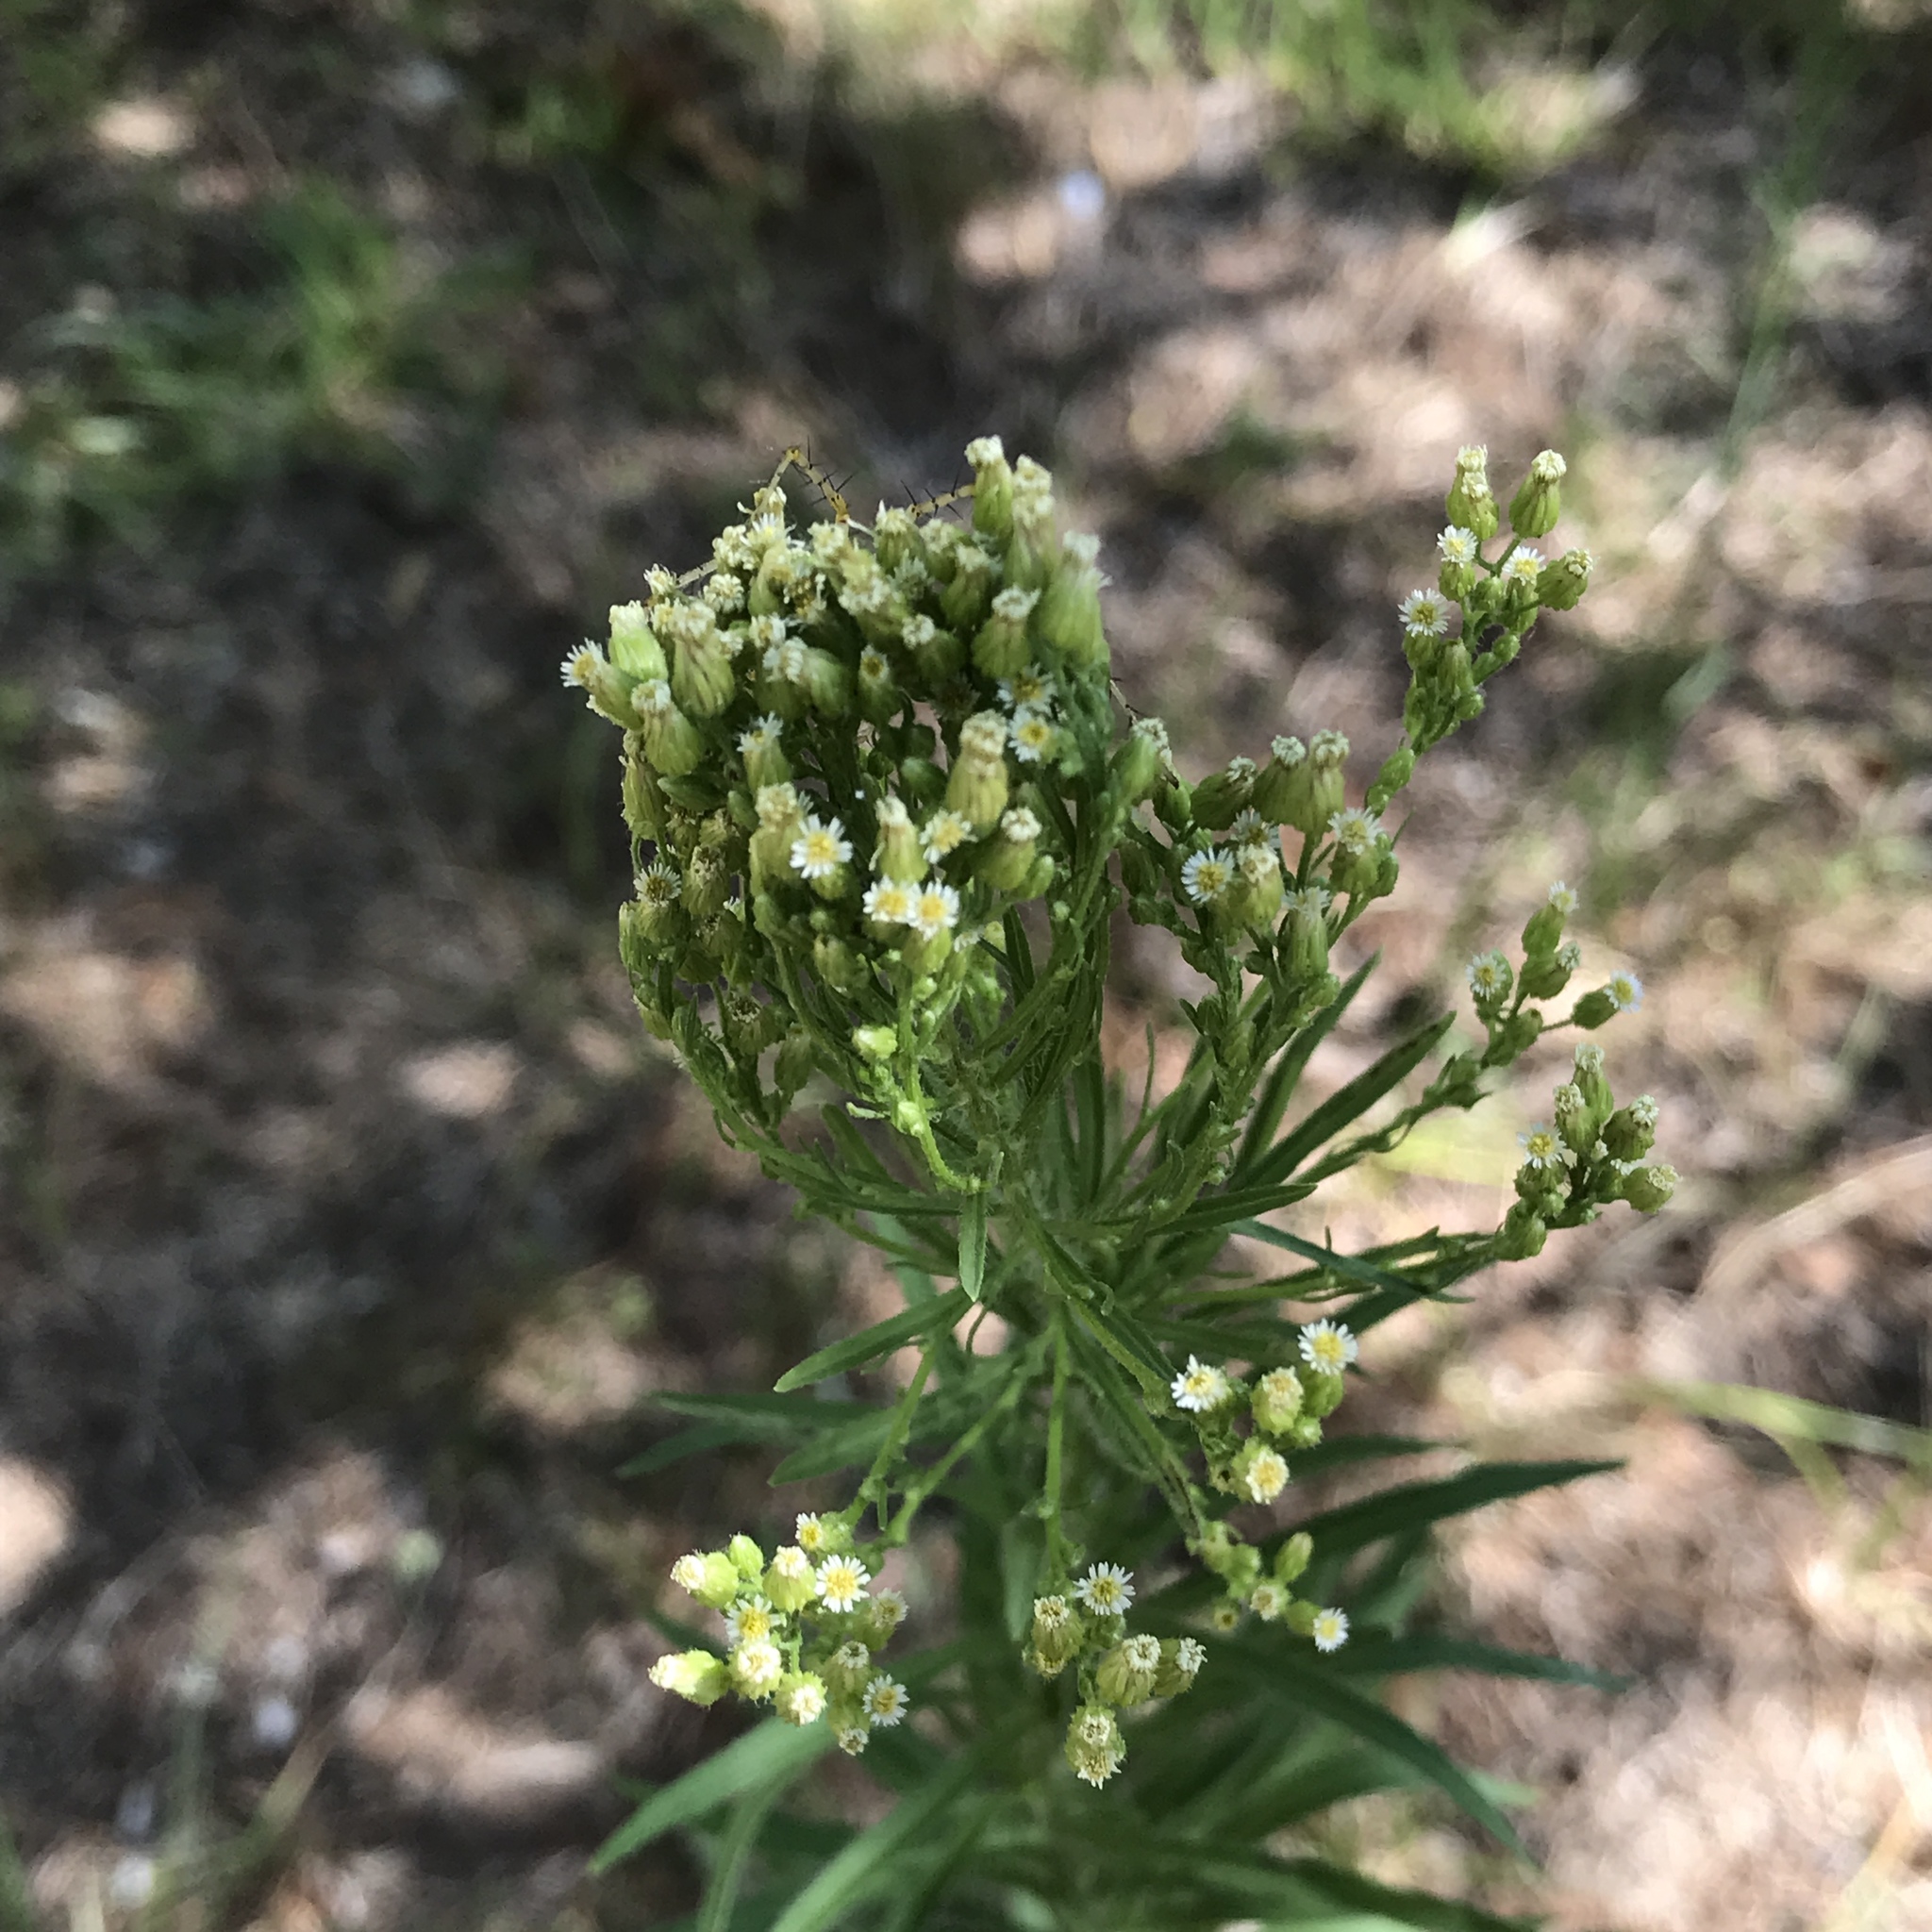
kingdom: Plantae
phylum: Tracheophyta
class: Magnoliopsida
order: Asterales
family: Asteraceae
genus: Erigeron
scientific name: Erigeron canadensis
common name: Canadian fleabane
